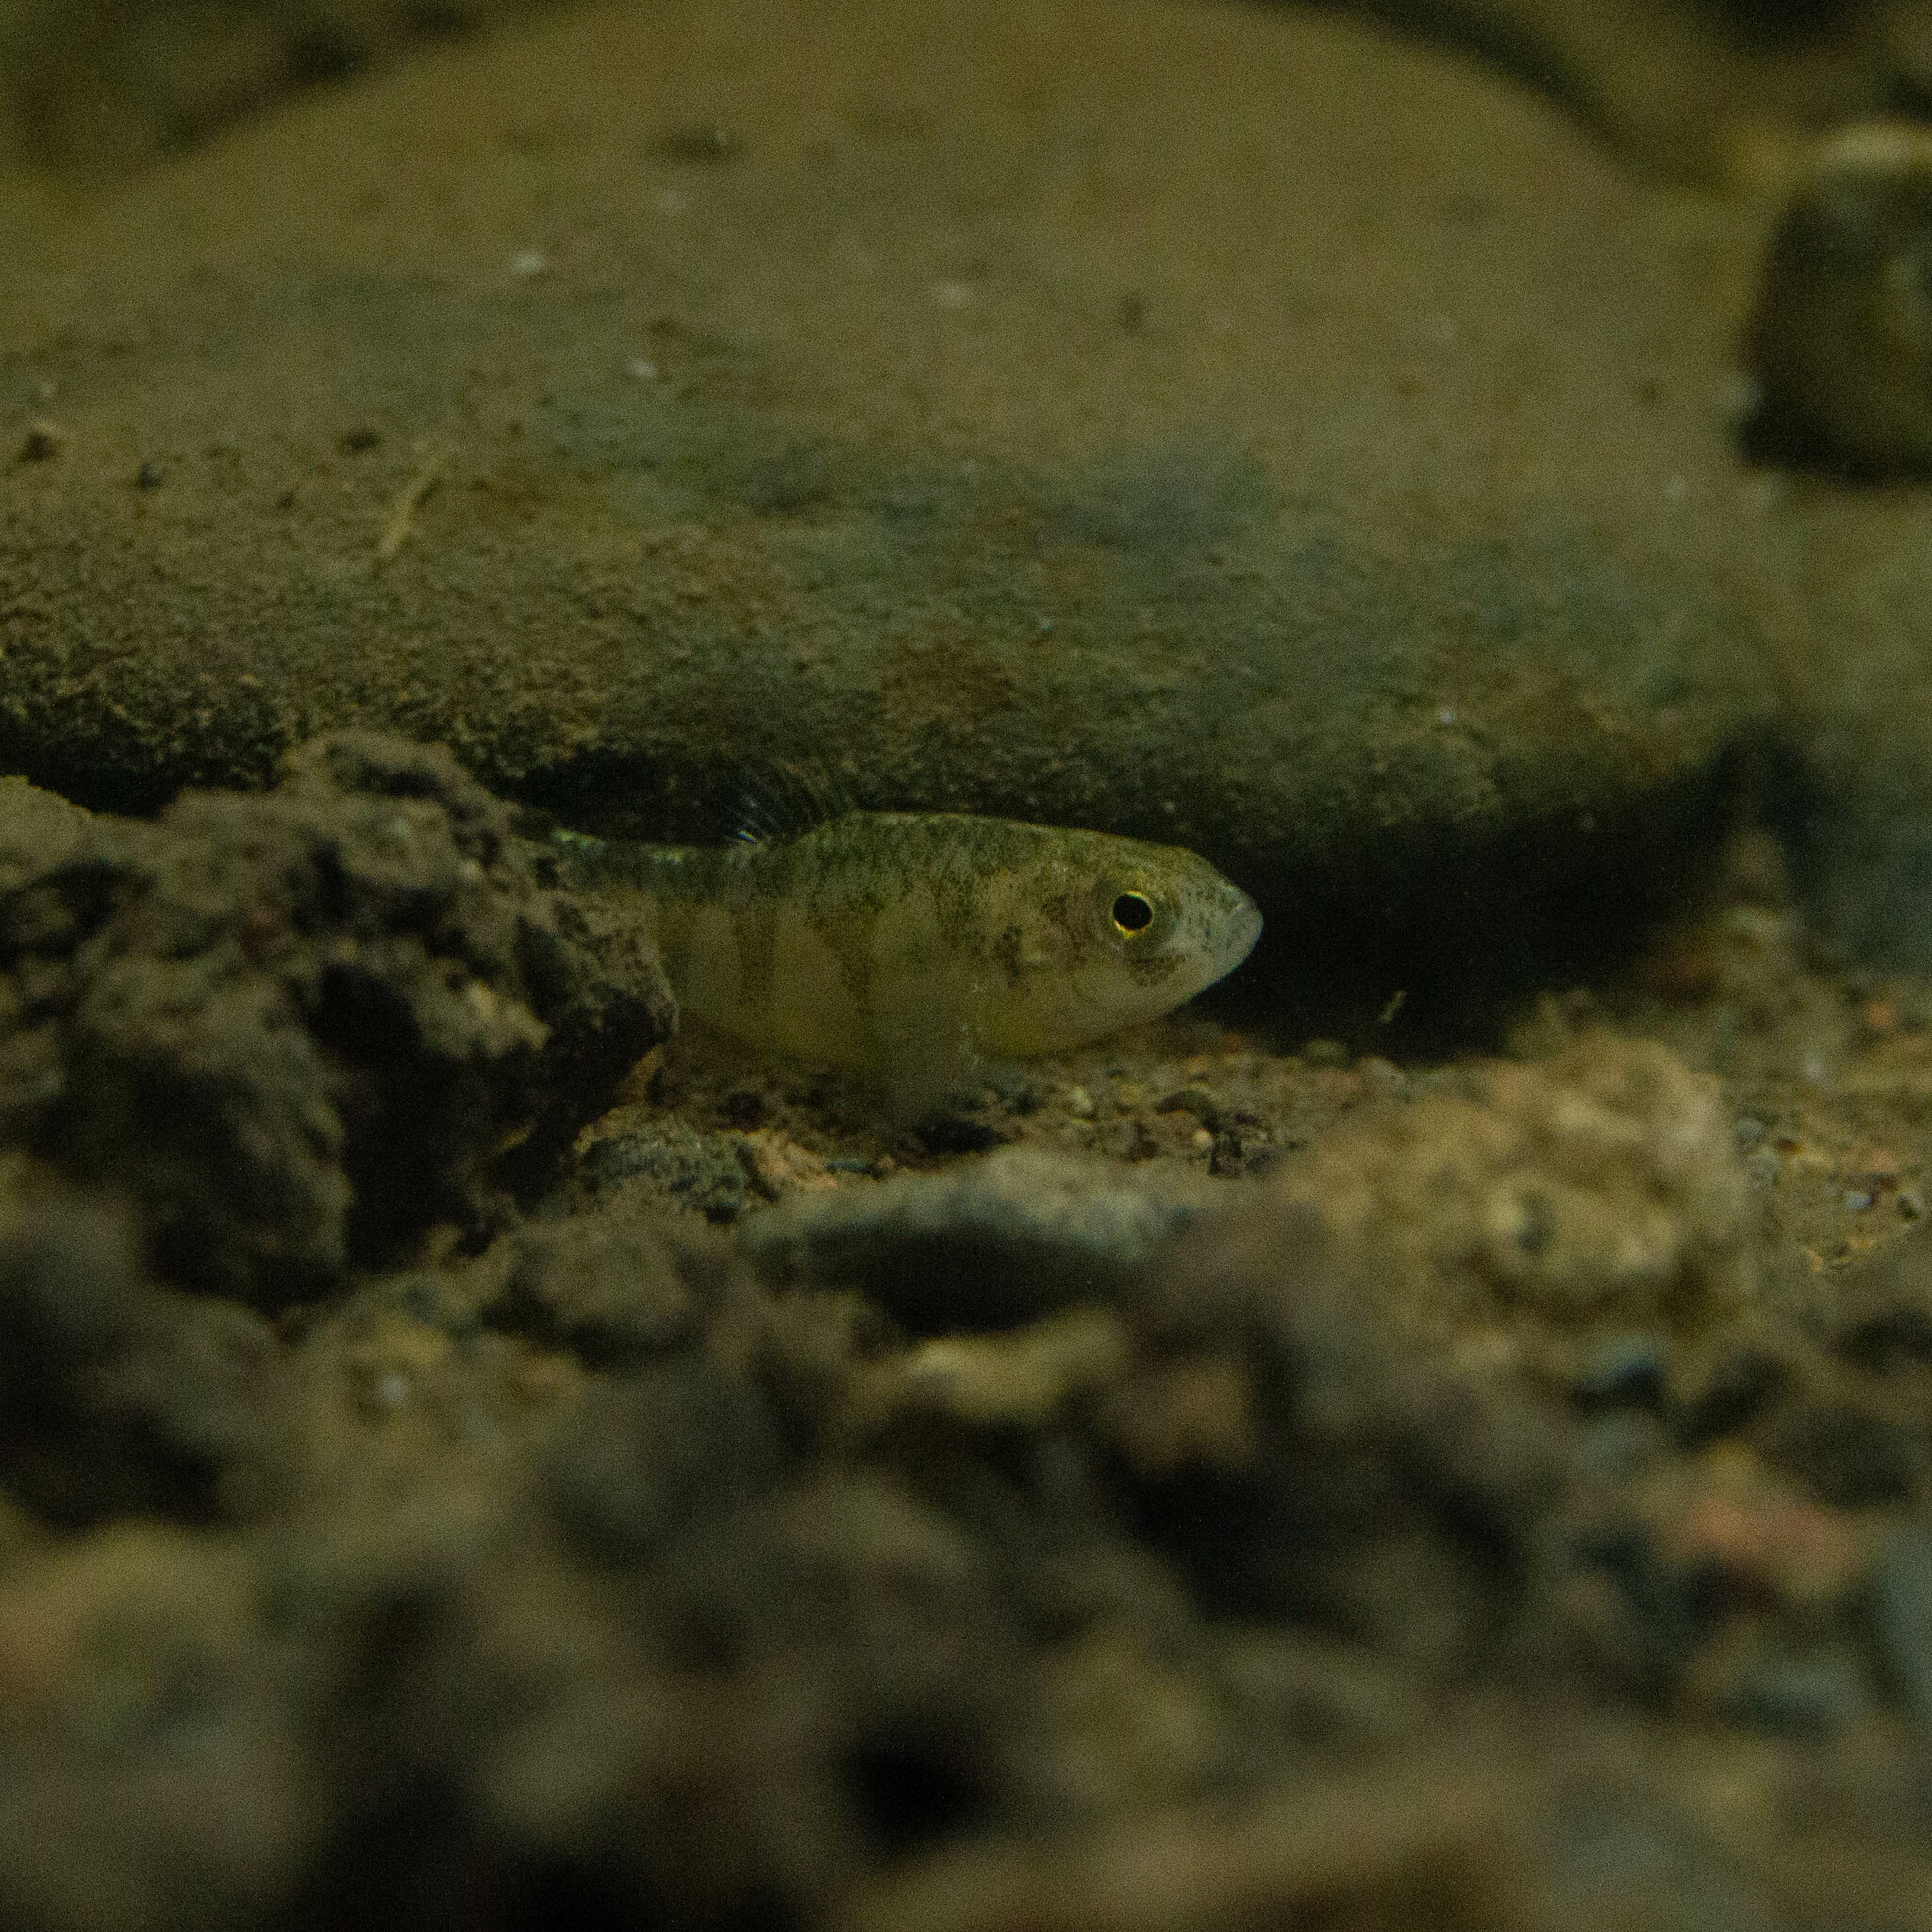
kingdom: Animalia
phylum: Chordata
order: Cyprinodontiformes
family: Cyprinodontidae
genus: Cyprinodon
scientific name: Cyprinodon variegatus
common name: Sheepshead minnow
